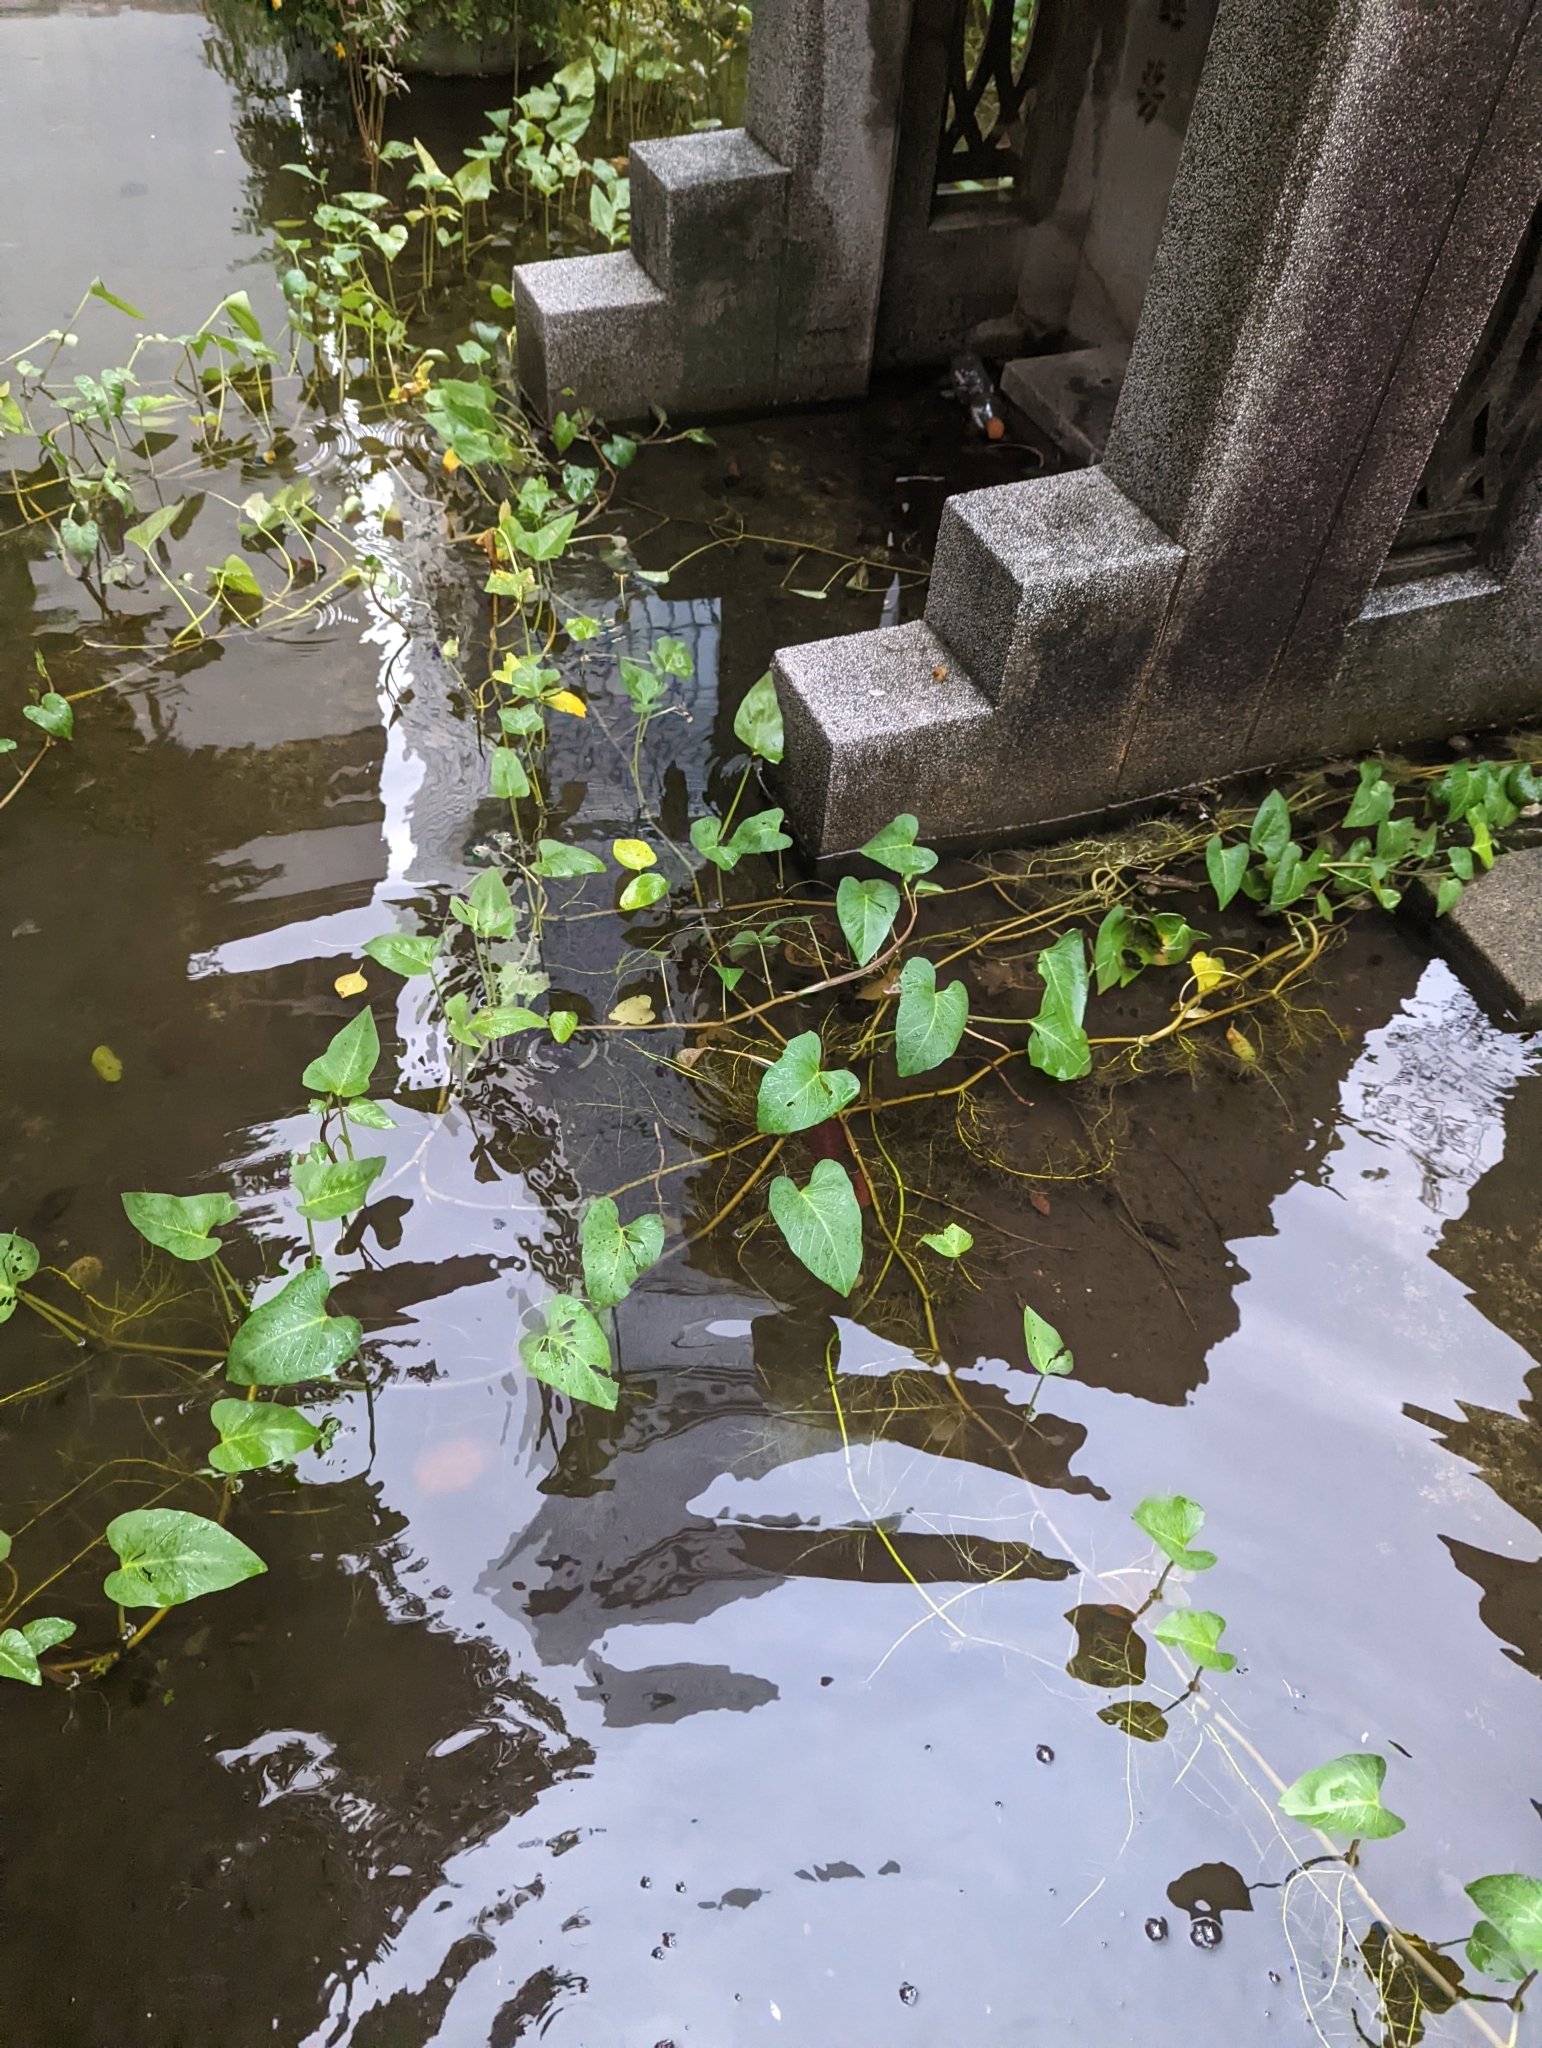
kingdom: Plantae
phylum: Tracheophyta
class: Magnoliopsida
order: Solanales
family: Convolvulaceae
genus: Ipomoea
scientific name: Ipomoea aquatica
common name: Swamp morning-glory
